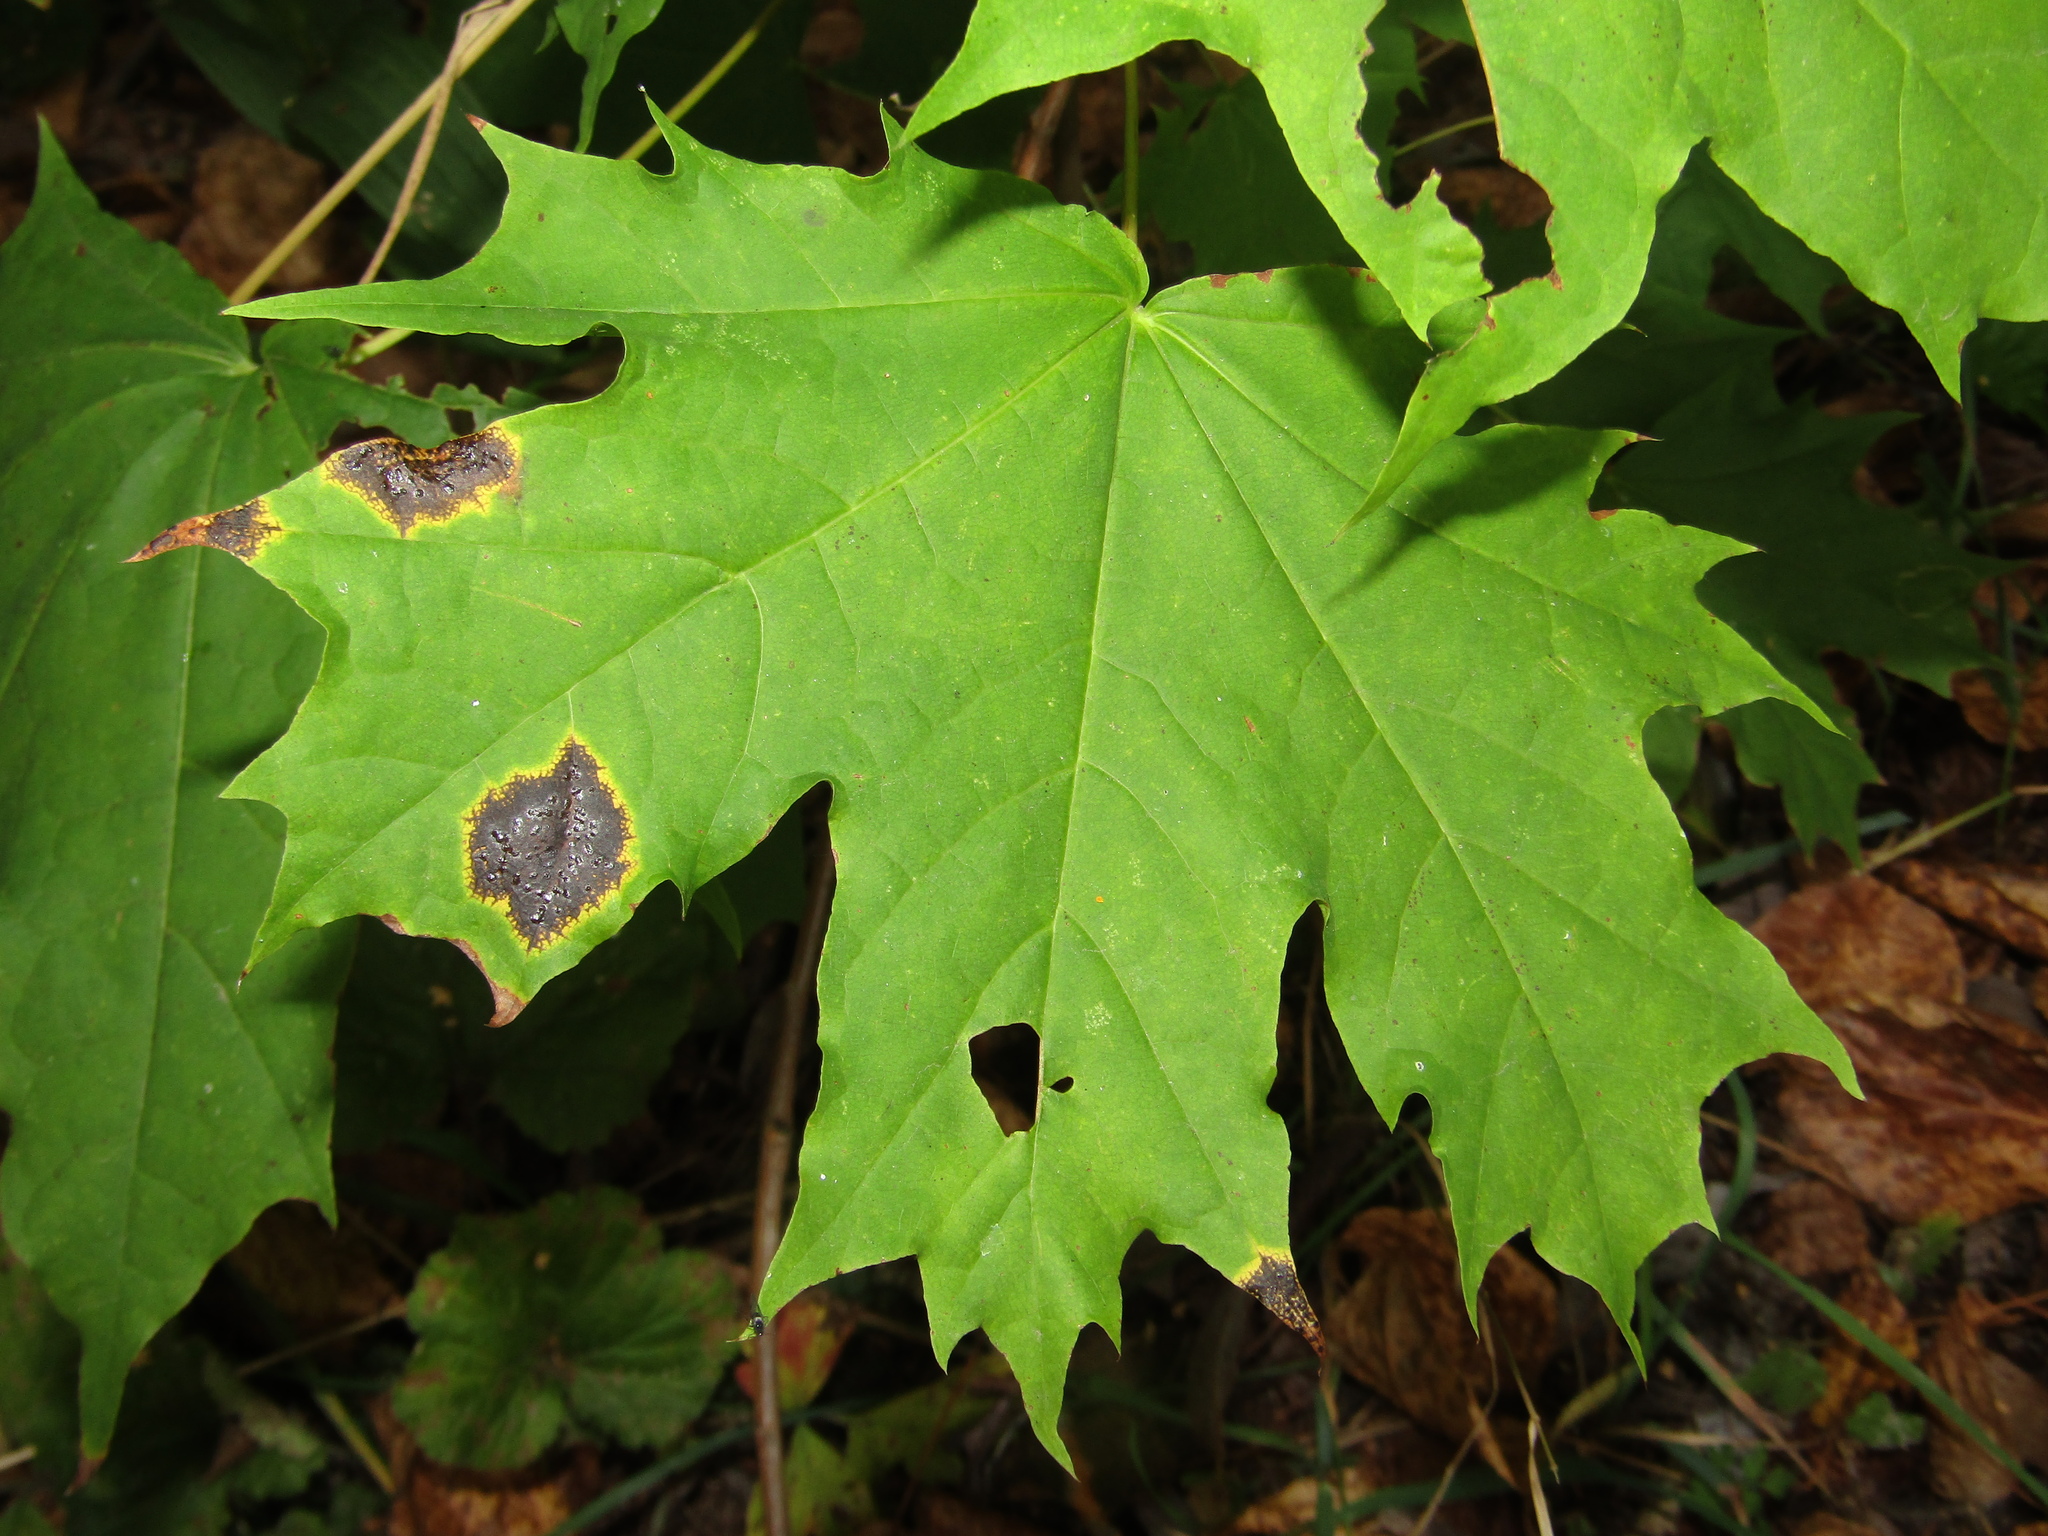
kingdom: Fungi
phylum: Ascomycota
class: Leotiomycetes
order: Rhytismatales
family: Rhytismataceae
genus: Rhytisma
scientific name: Rhytisma acerinum
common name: European tar spot
